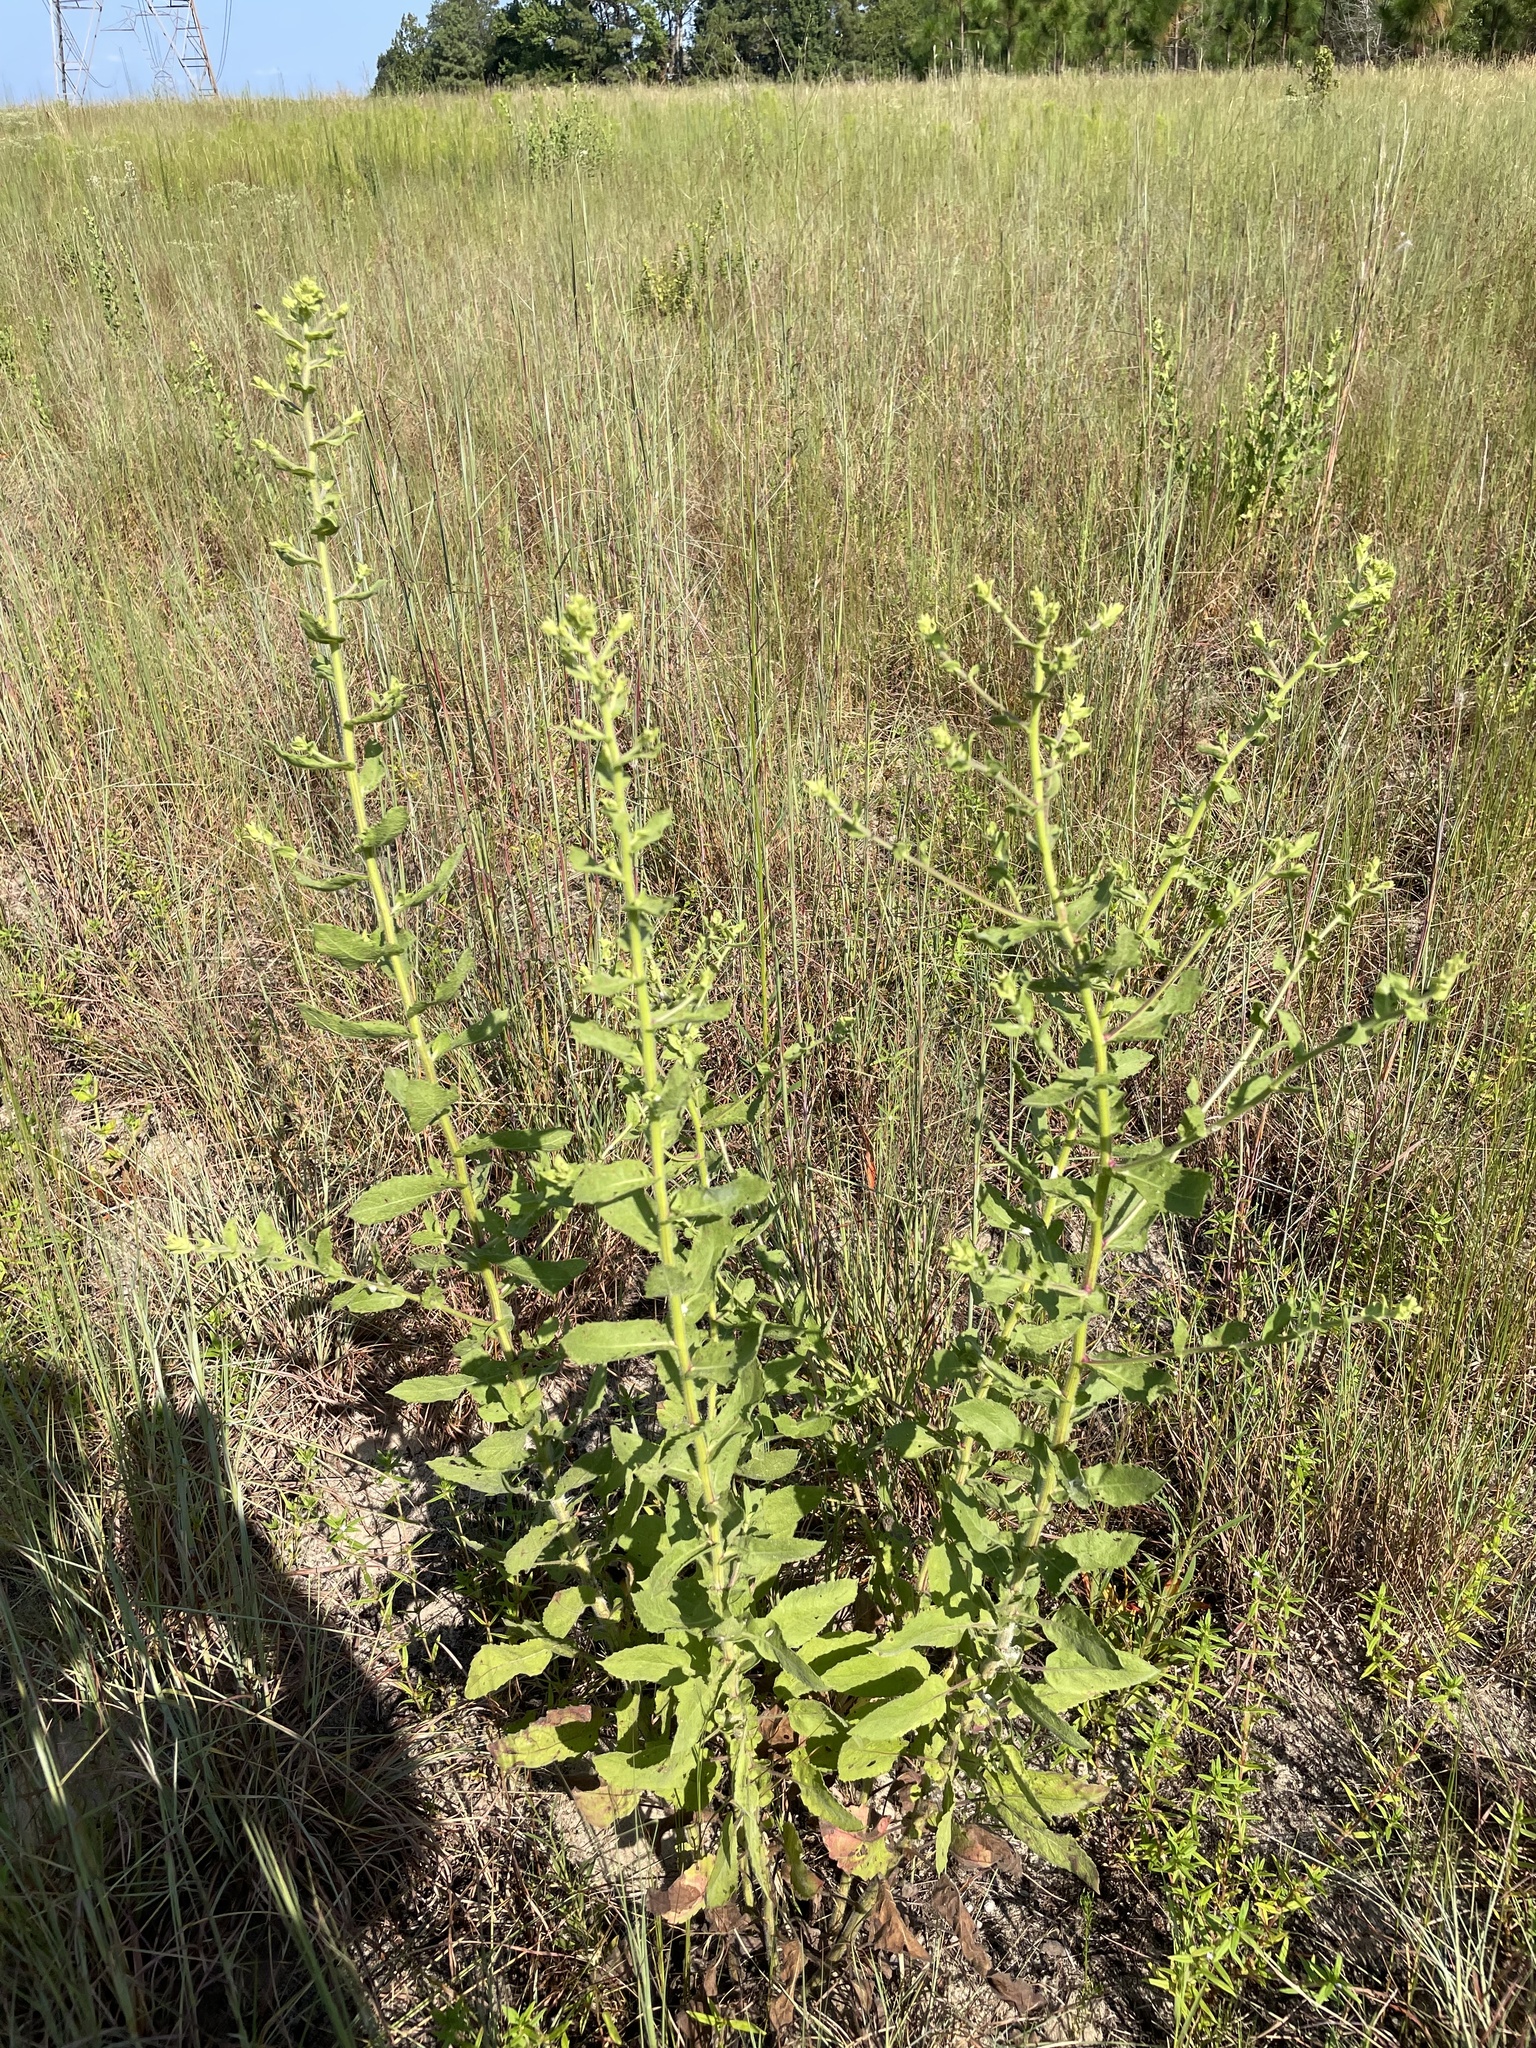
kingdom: Plantae
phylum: Tracheophyta
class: Magnoliopsida
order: Asterales
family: Asteraceae
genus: Heterotheca
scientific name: Heterotheca subaxillaris
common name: Camphorweed
